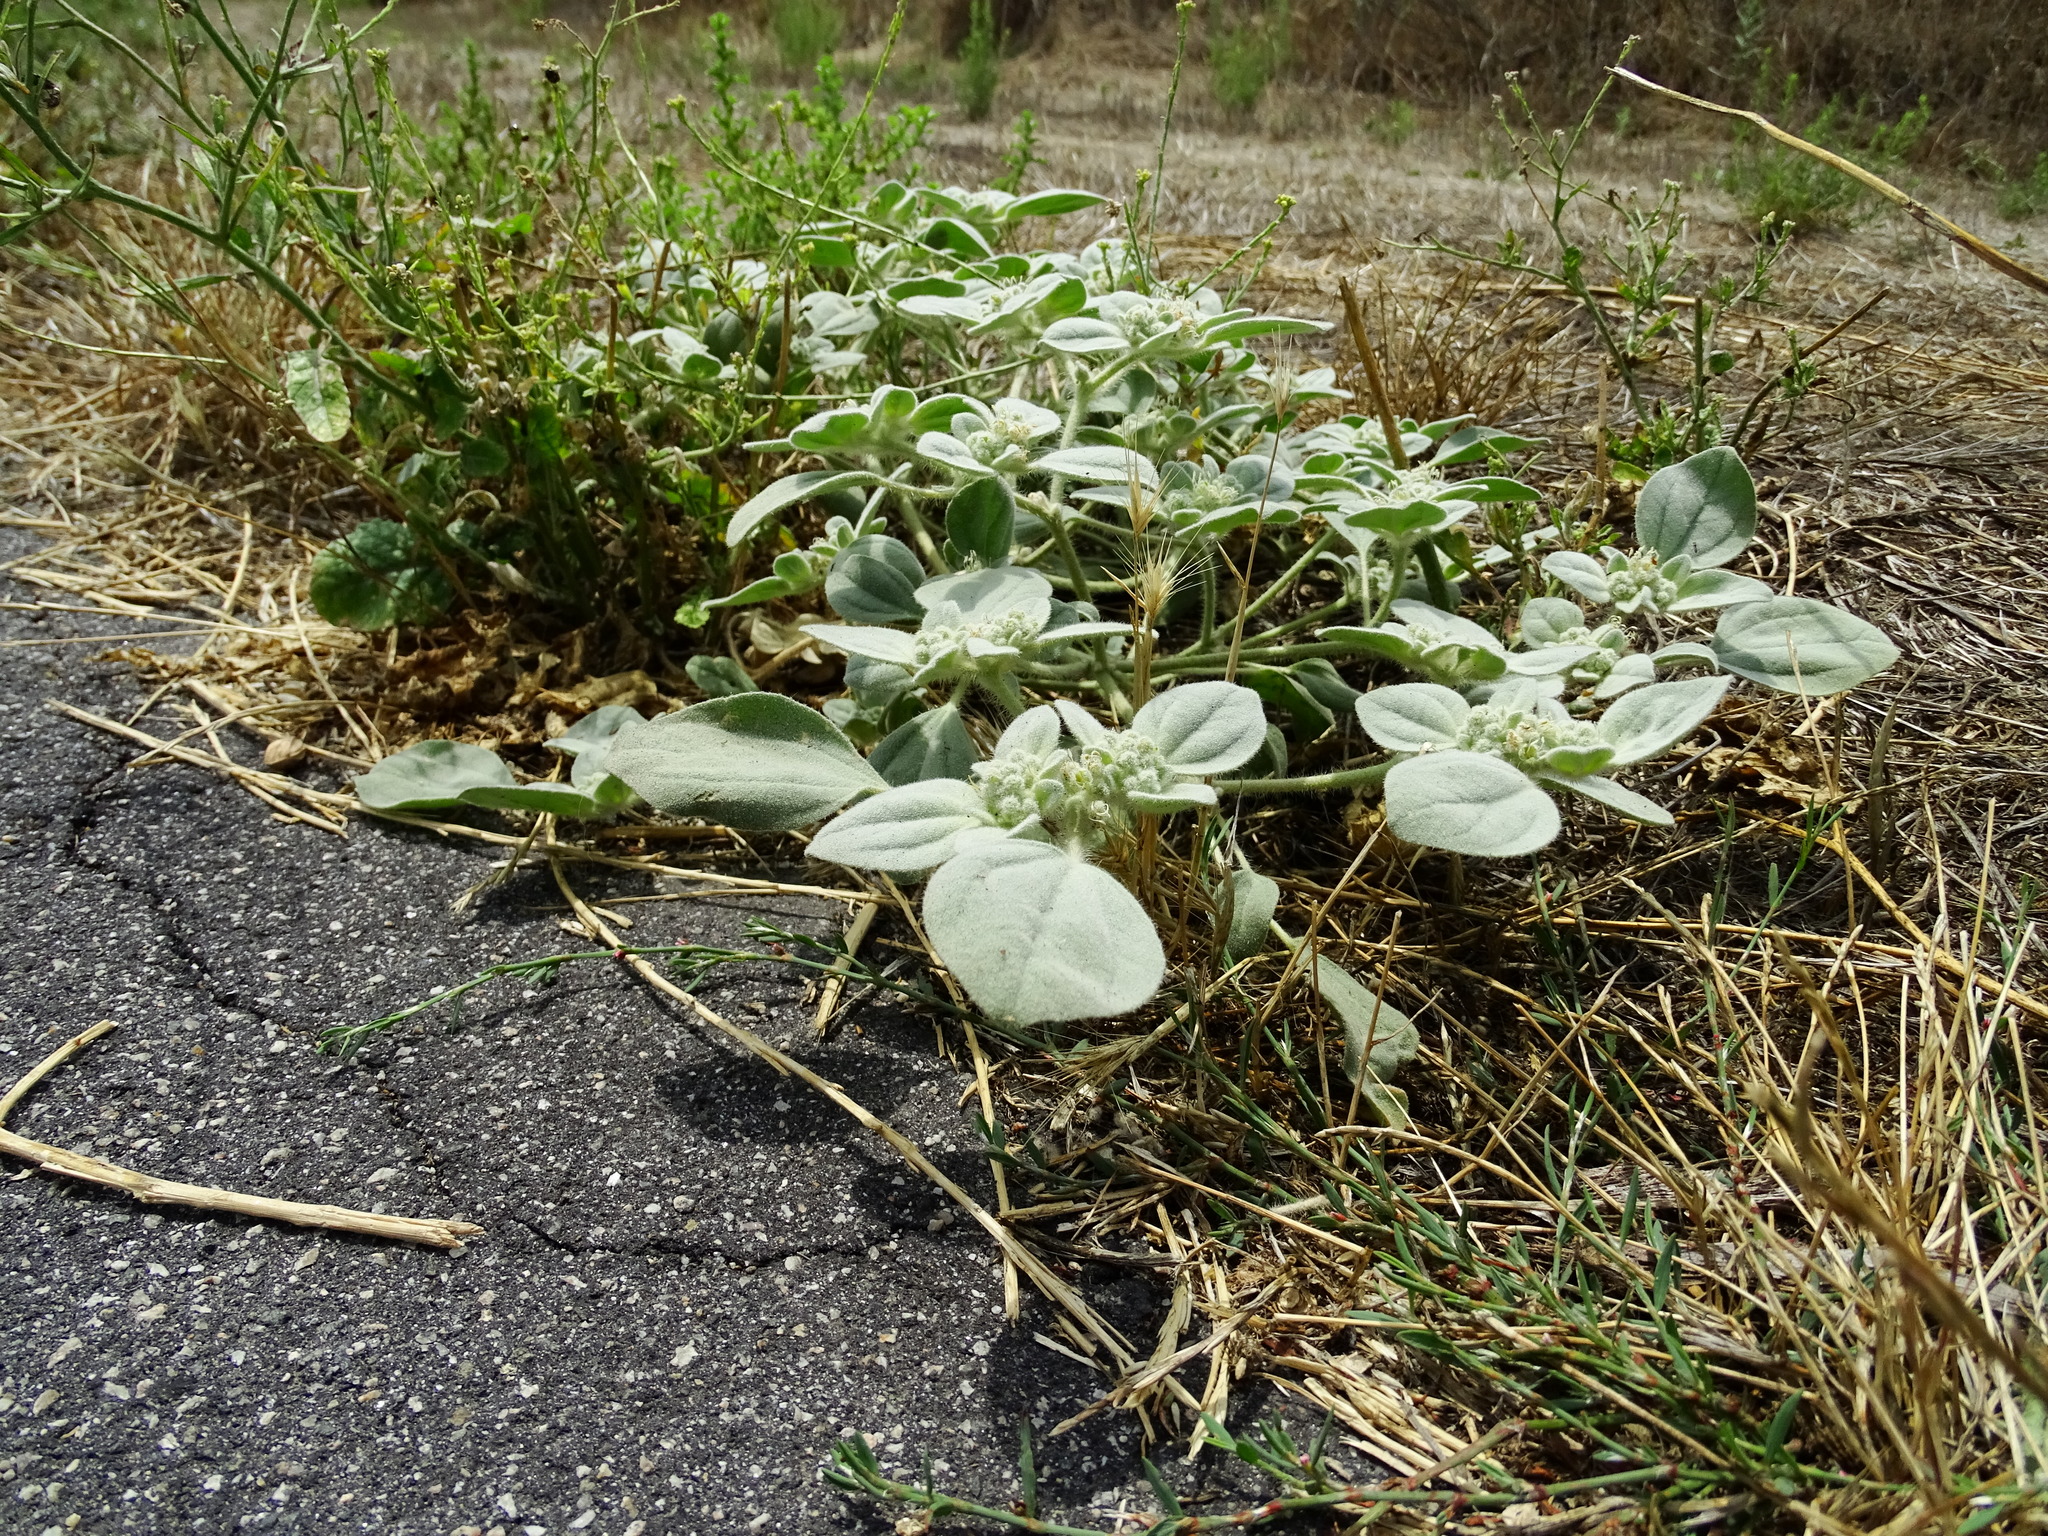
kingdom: Plantae
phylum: Tracheophyta
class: Magnoliopsida
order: Malpighiales
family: Euphorbiaceae
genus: Croton
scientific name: Croton setiger
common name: Dove weed
